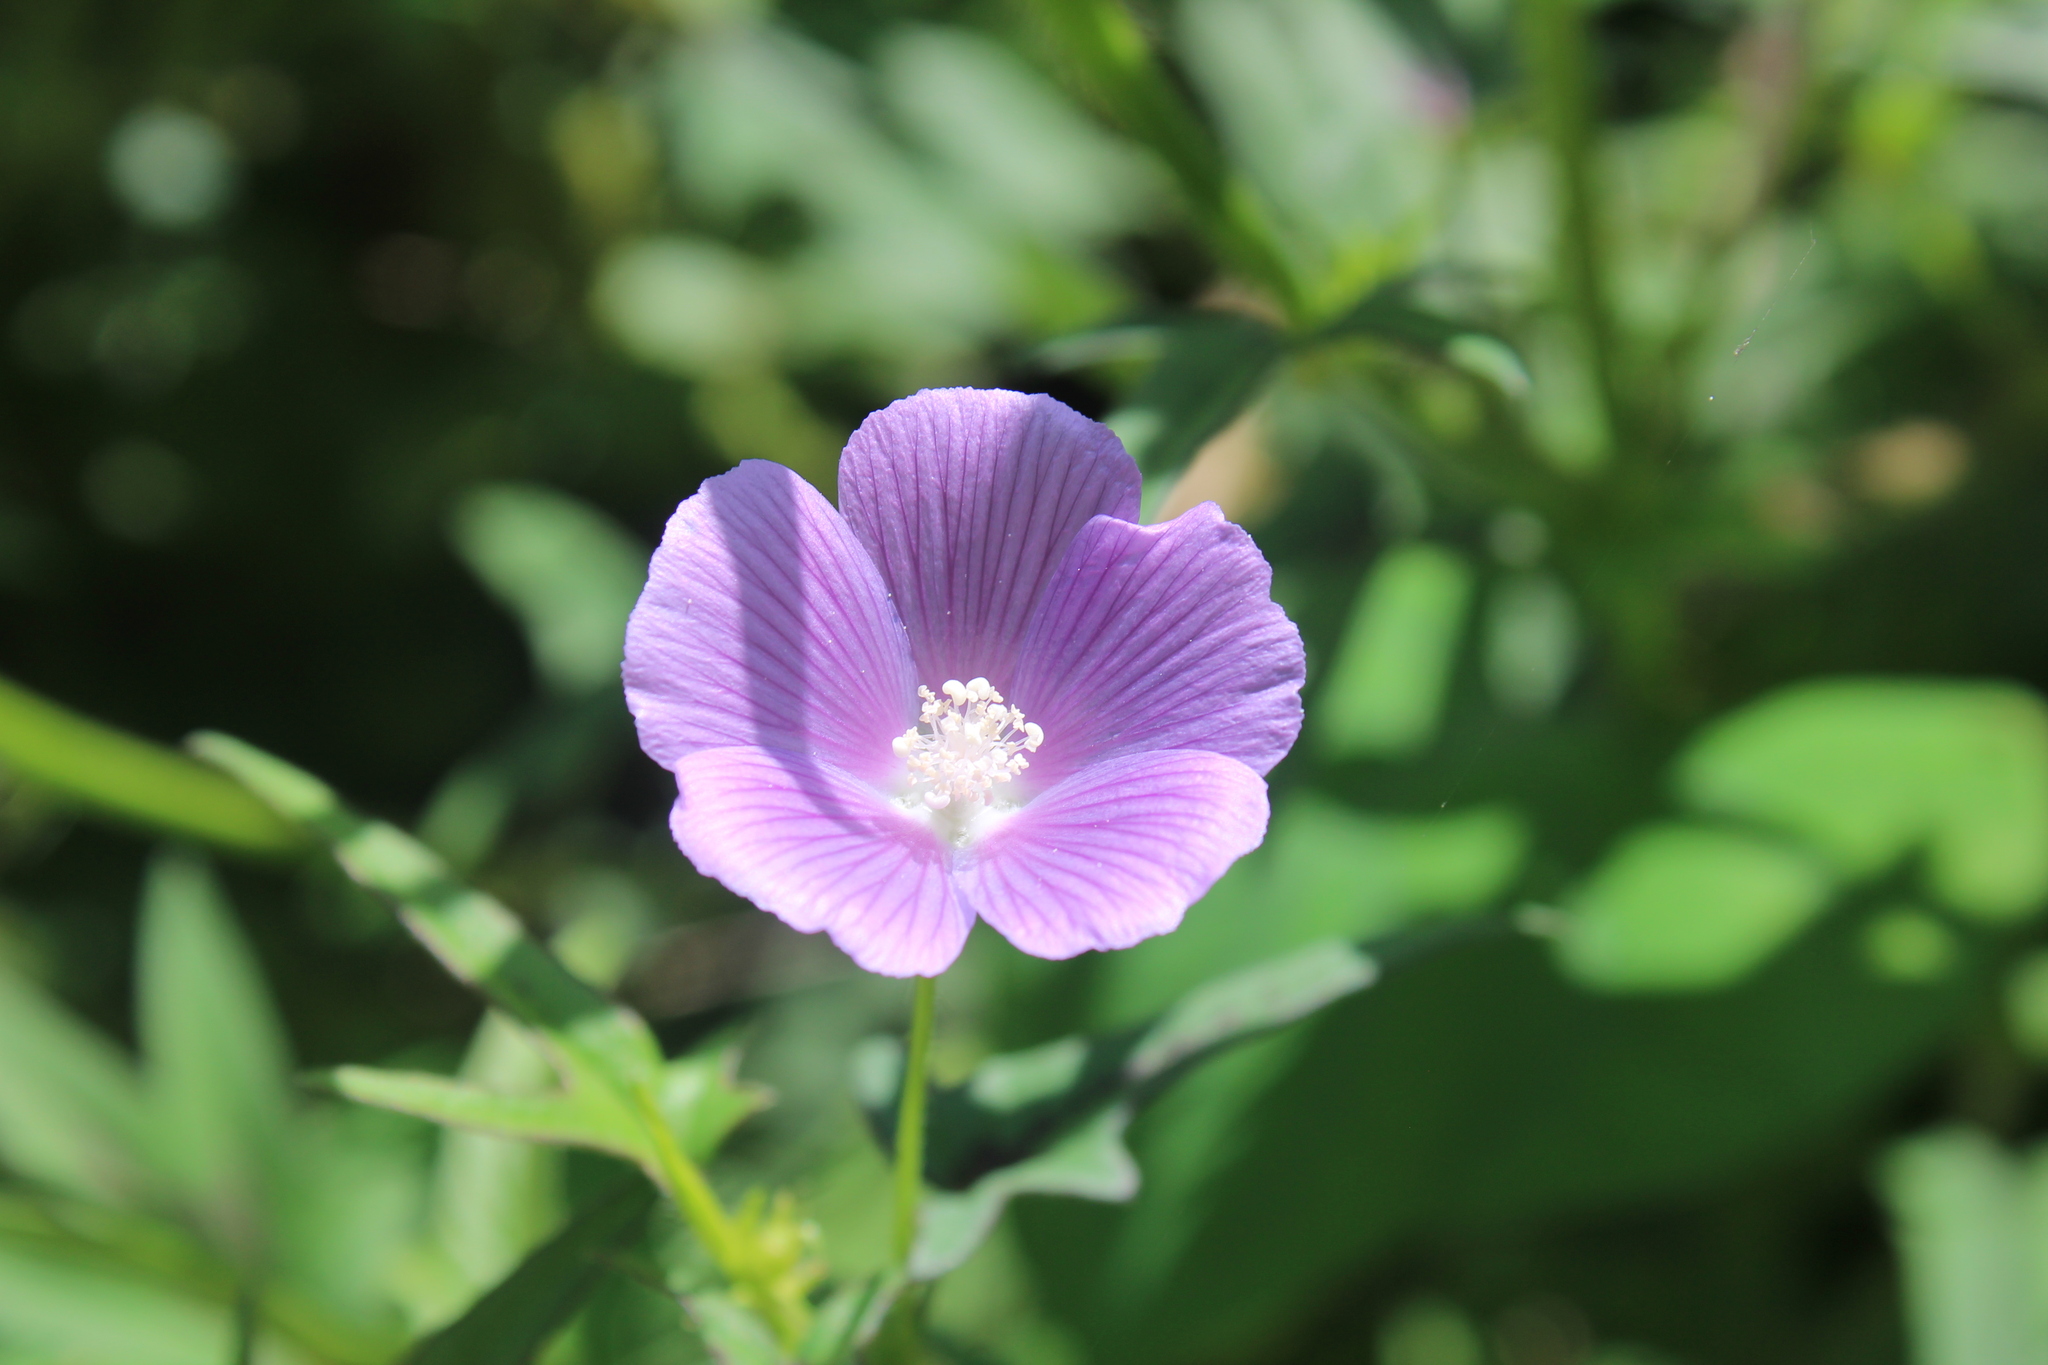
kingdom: Plantae
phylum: Tracheophyta
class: Magnoliopsida
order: Malvales
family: Malvaceae
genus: Anoda
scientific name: Anoda cristata
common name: Spurred anoda
